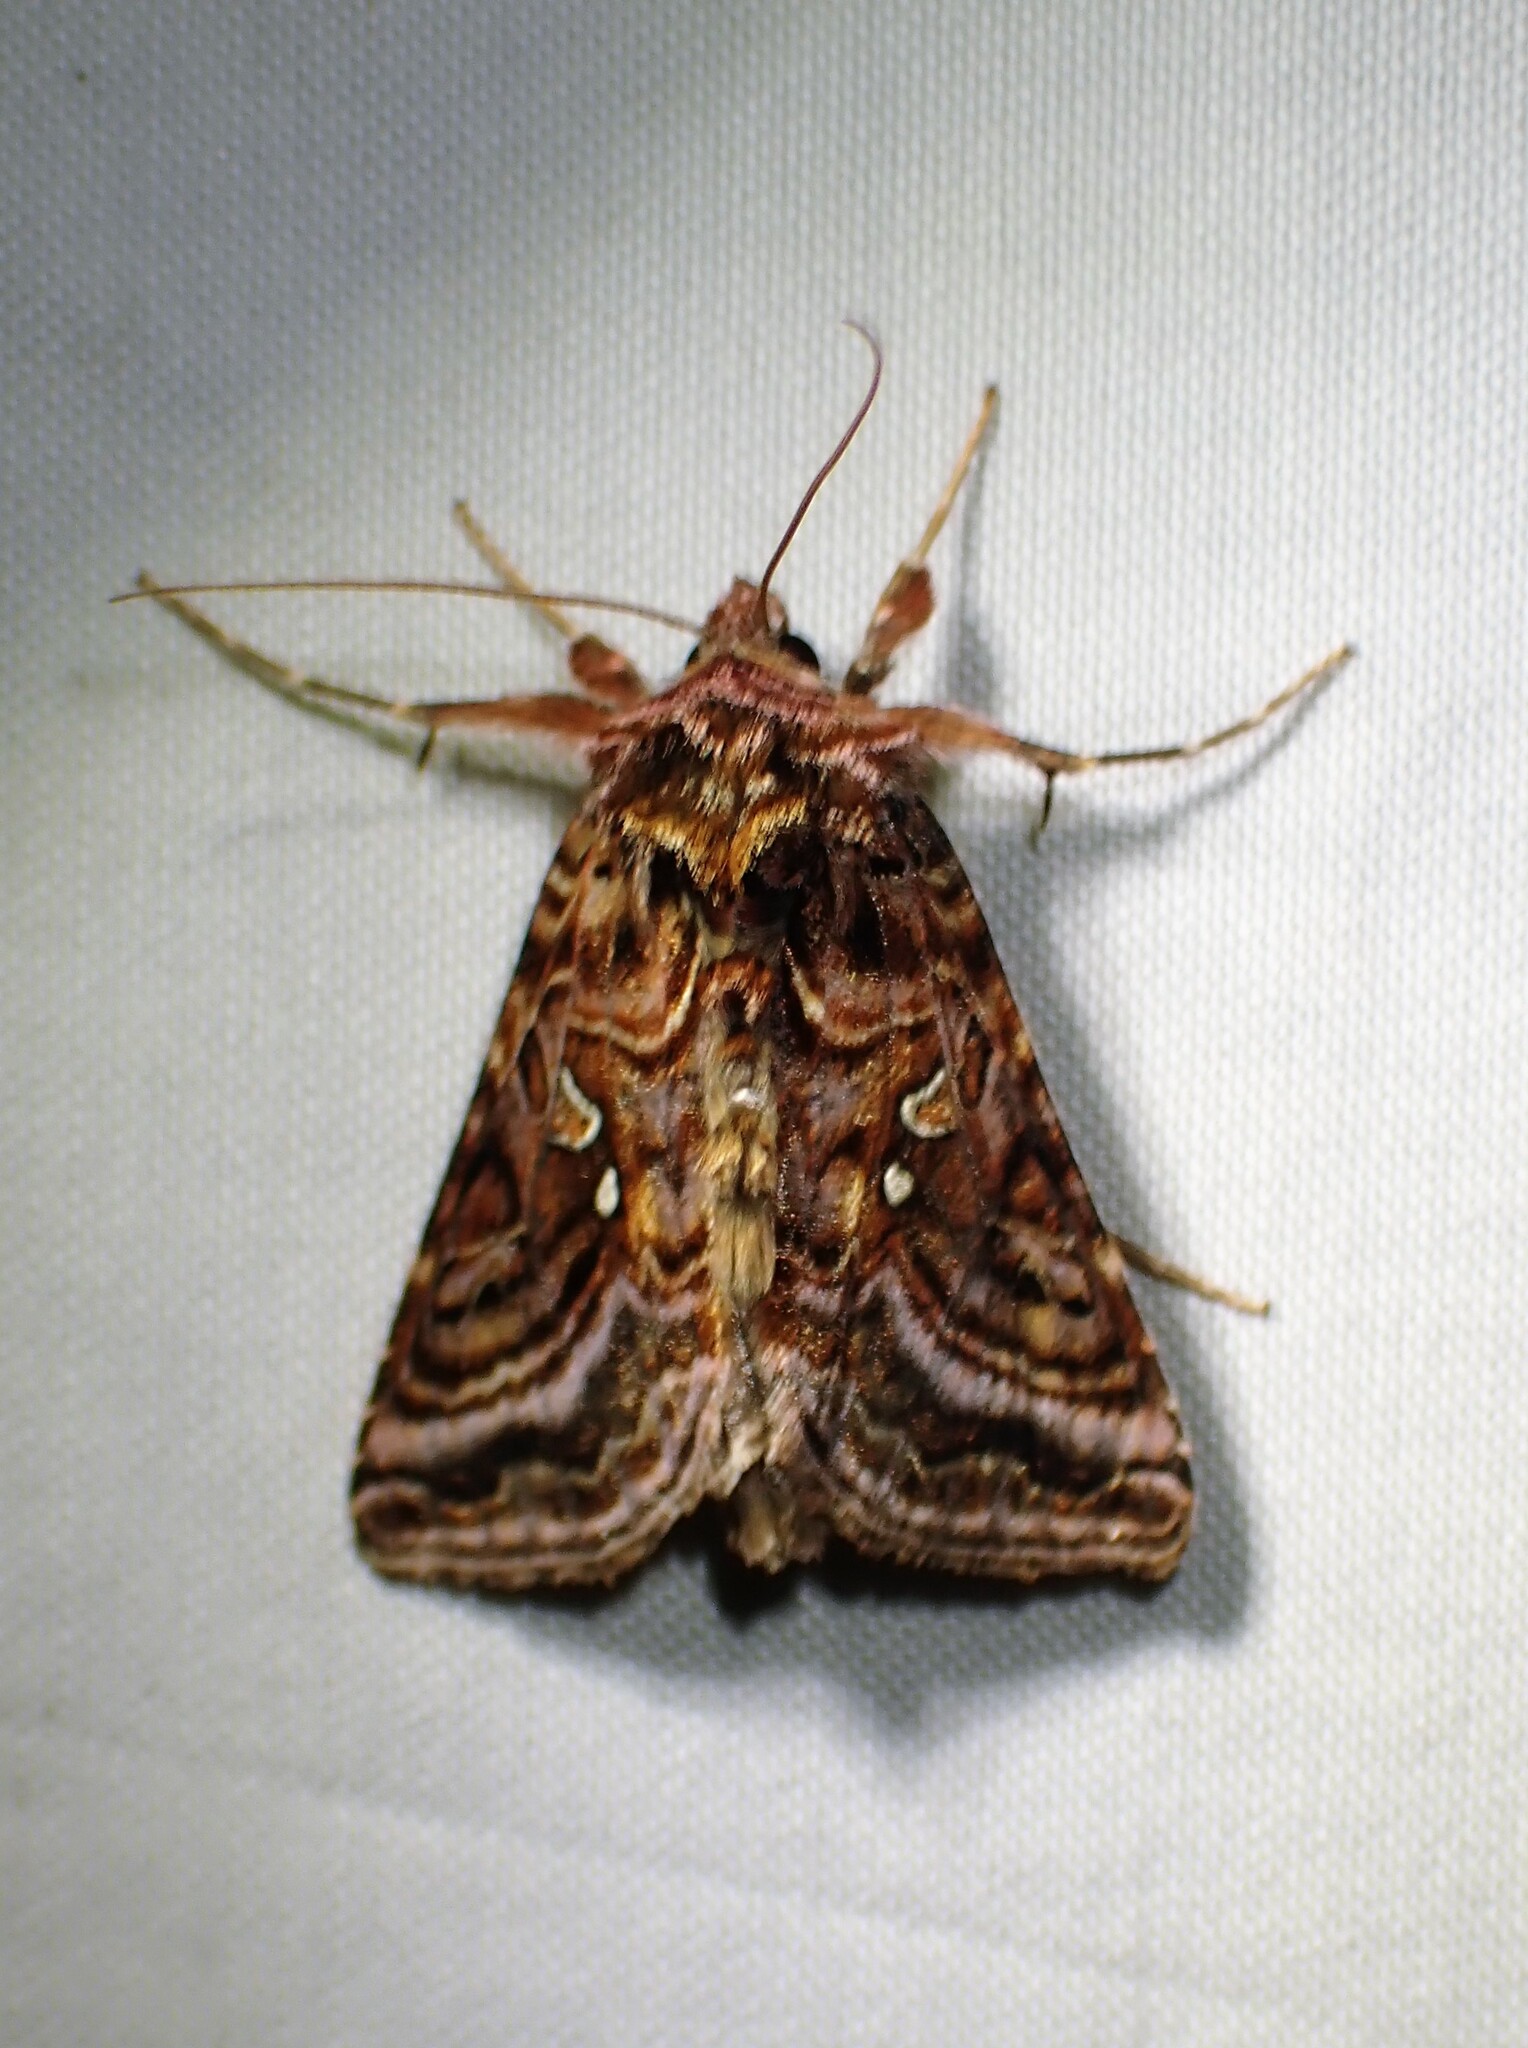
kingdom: Animalia
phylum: Arthropoda
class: Insecta
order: Lepidoptera
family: Noctuidae
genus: Autographa
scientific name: Autographa mappa
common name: Wavy chestnut y moth
